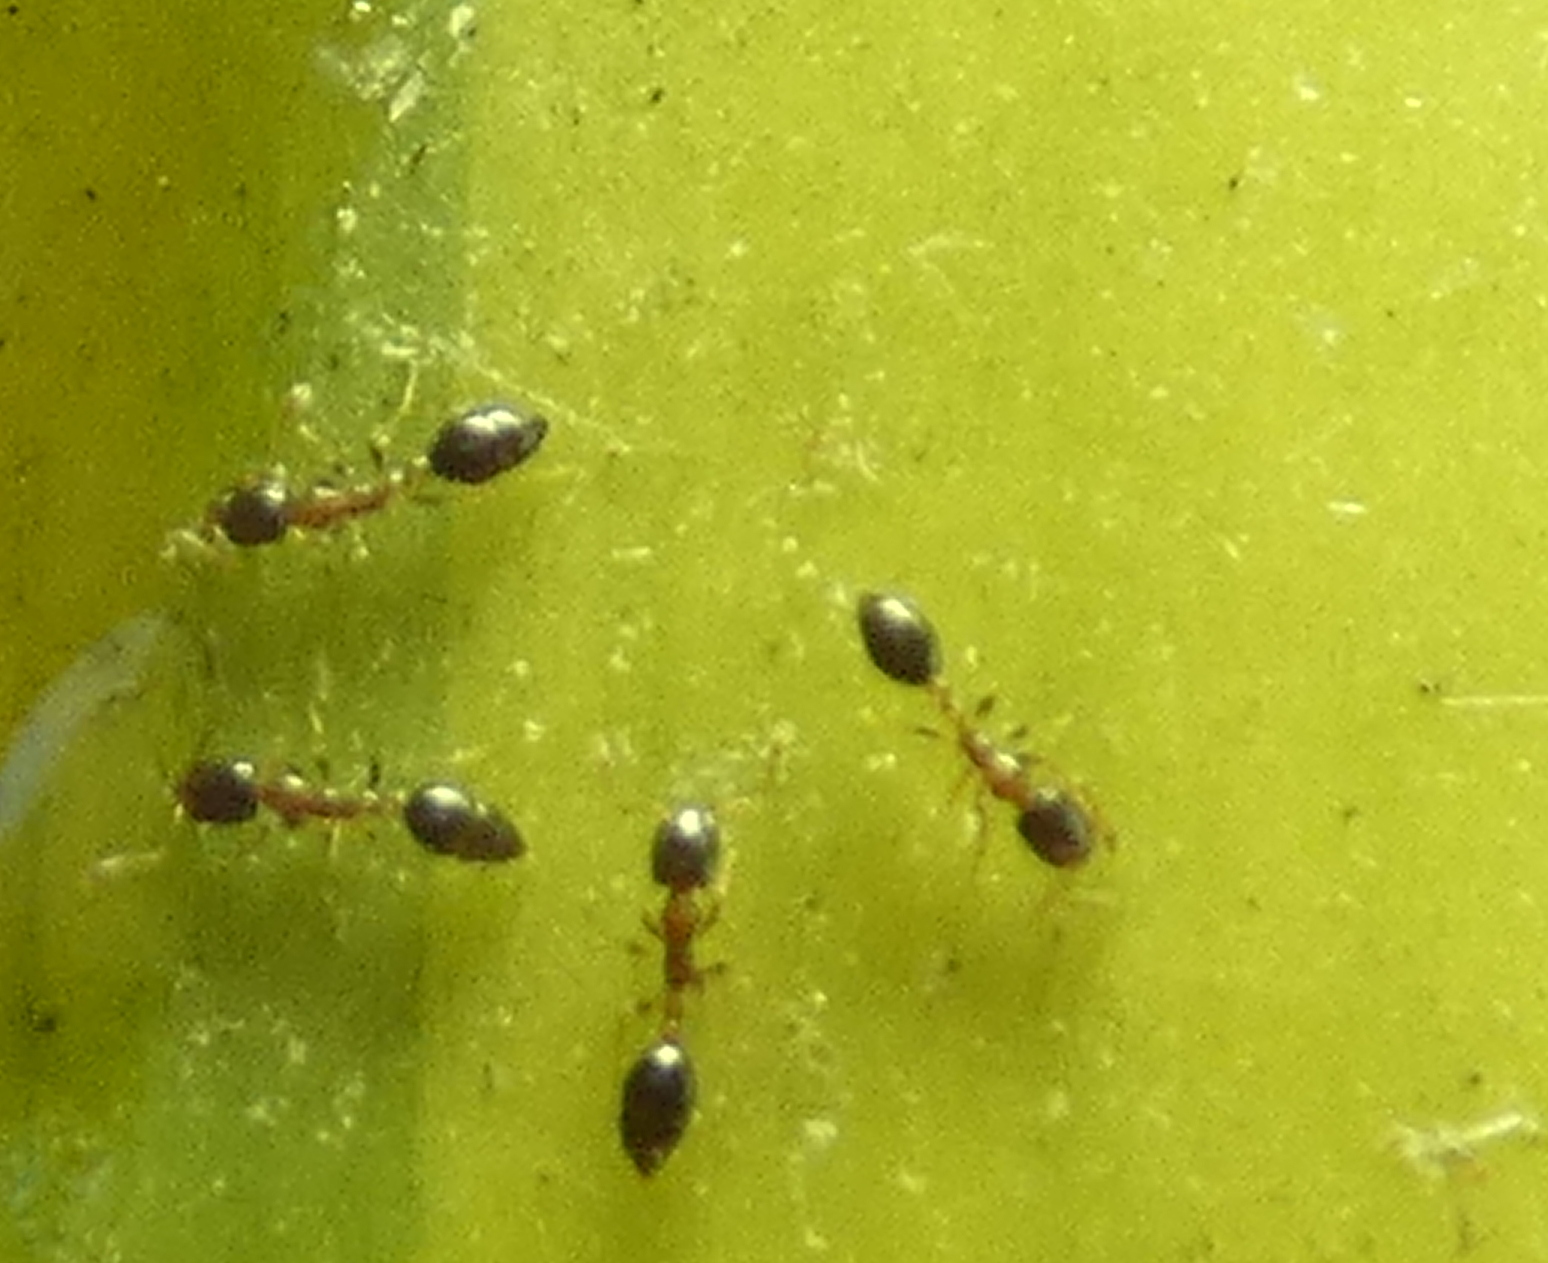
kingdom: Animalia
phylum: Arthropoda
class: Insecta
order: Hymenoptera
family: Formicidae
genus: Monomorium
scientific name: Monomorium floricola
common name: Bicolored trailing ant
